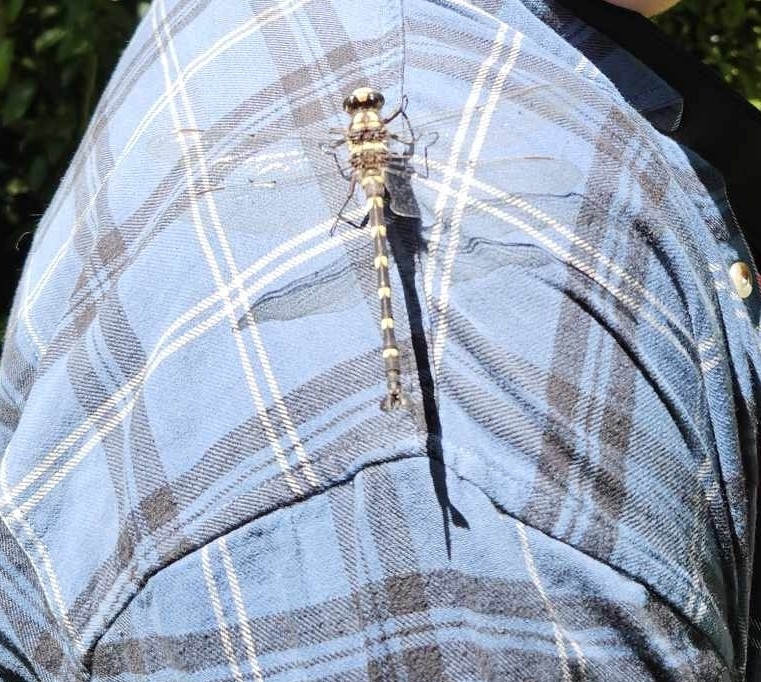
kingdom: Animalia
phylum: Arthropoda
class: Insecta
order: Odonata
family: Petaluridae
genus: Uropetala
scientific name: Uropetala carovei
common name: Bush giant dragonfly
